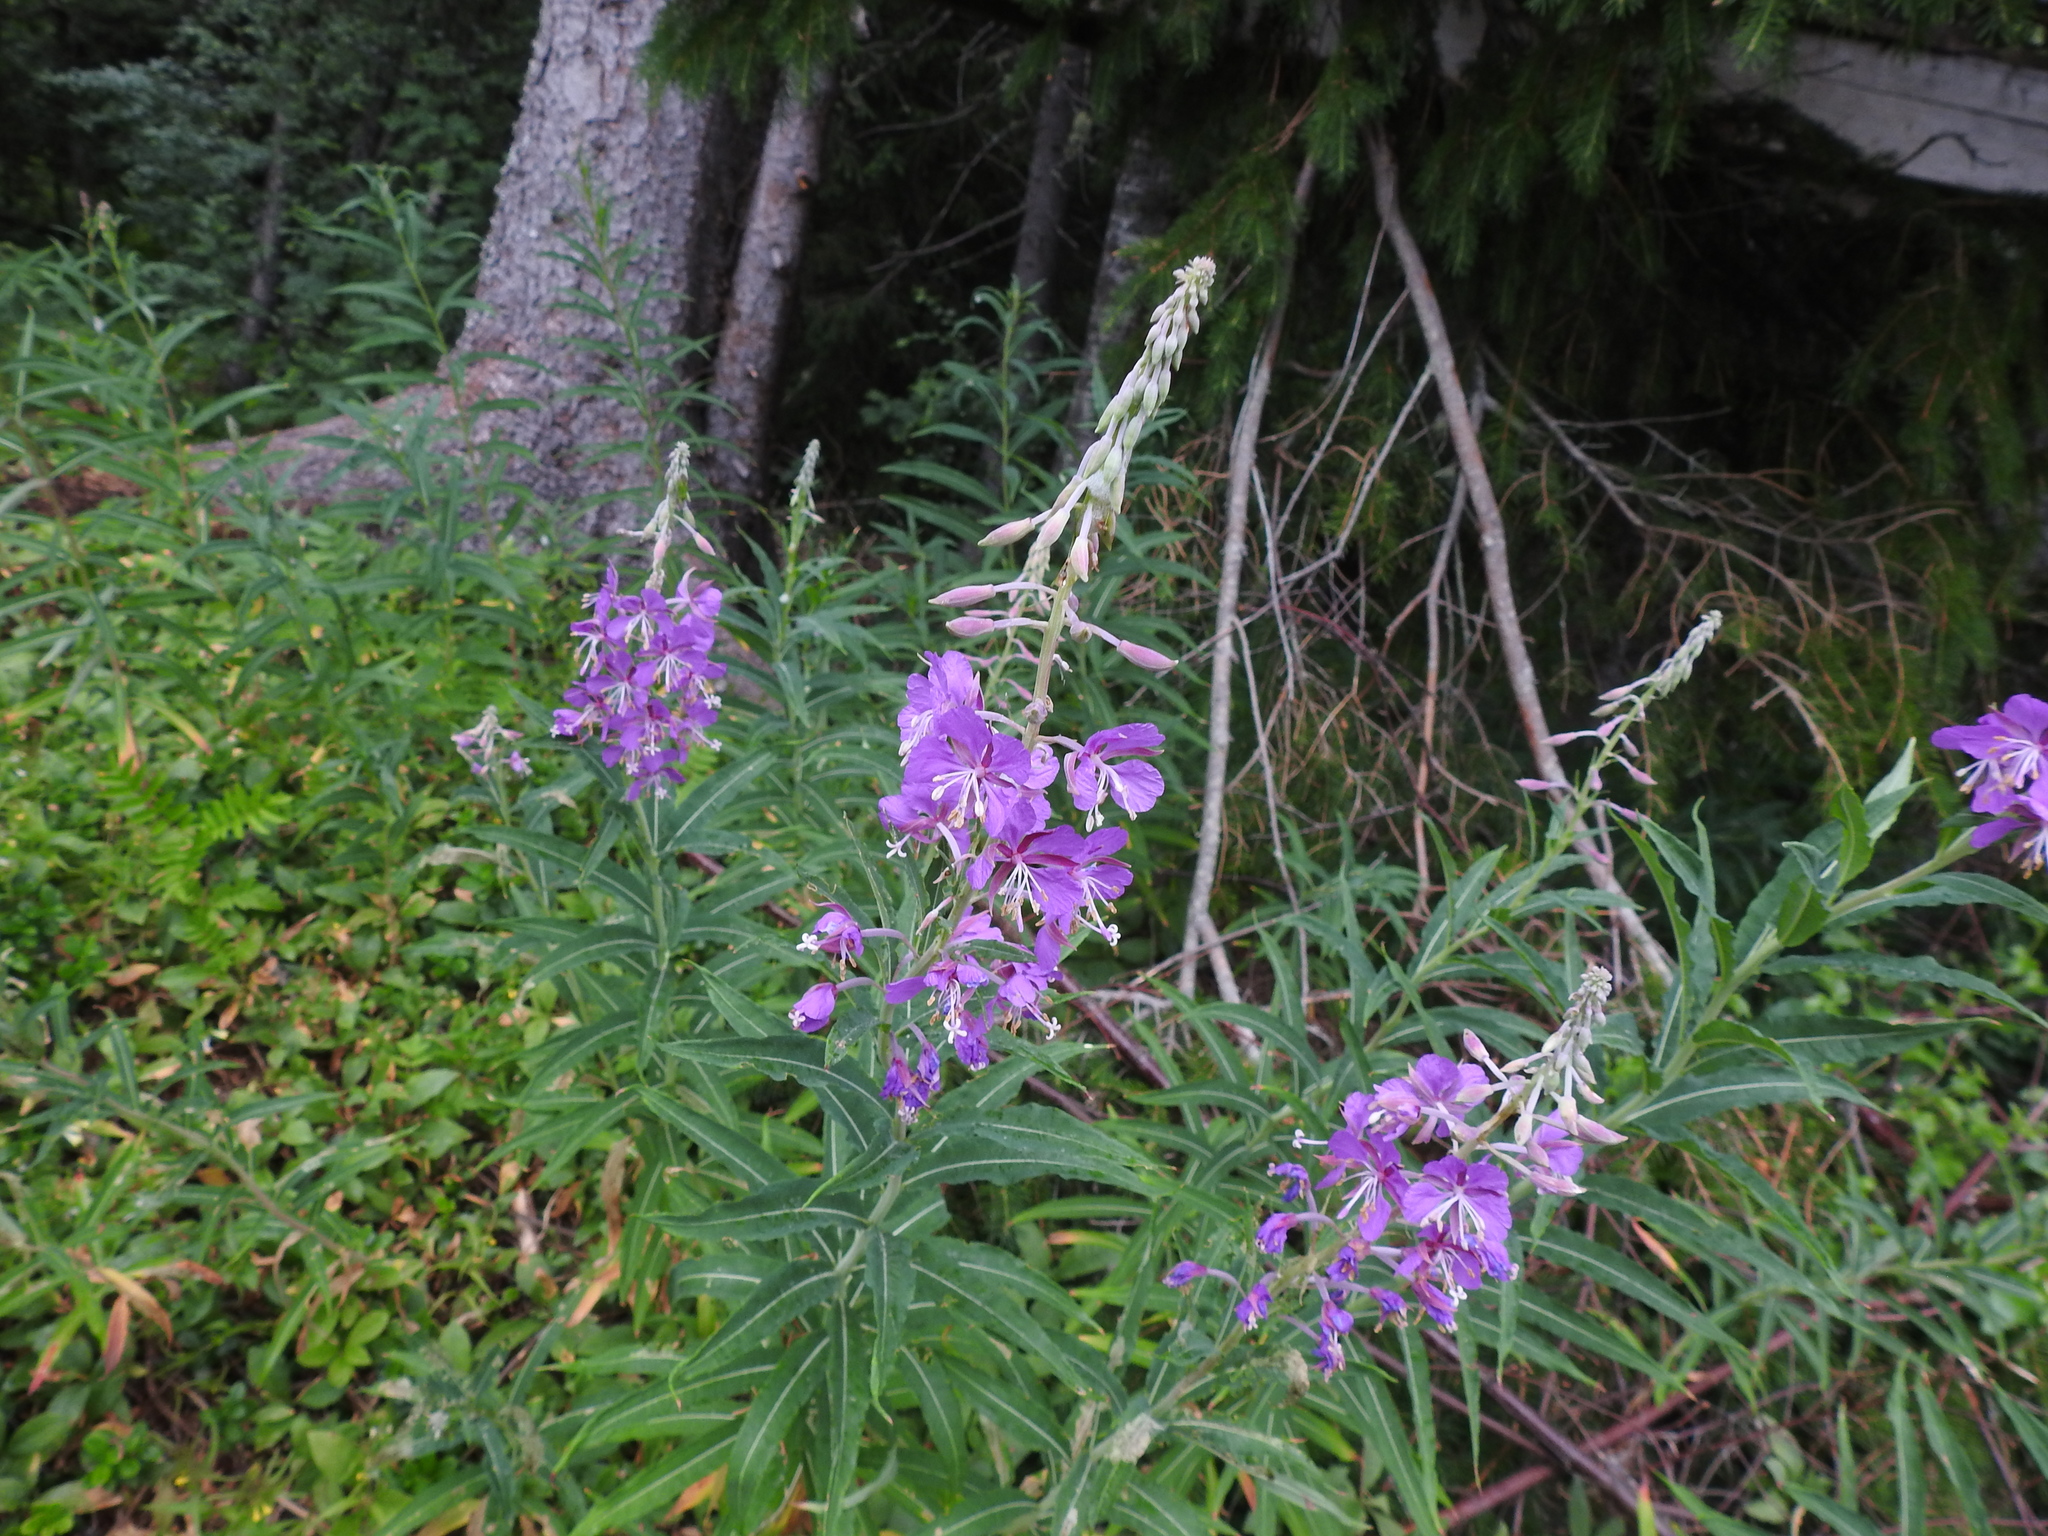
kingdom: Plantae
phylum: Tracheophyta
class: Magnoliopsida
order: Myrtales
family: Onagraceae
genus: Chamaenerion
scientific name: Chamaenerion angustifolium
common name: Fireweed
